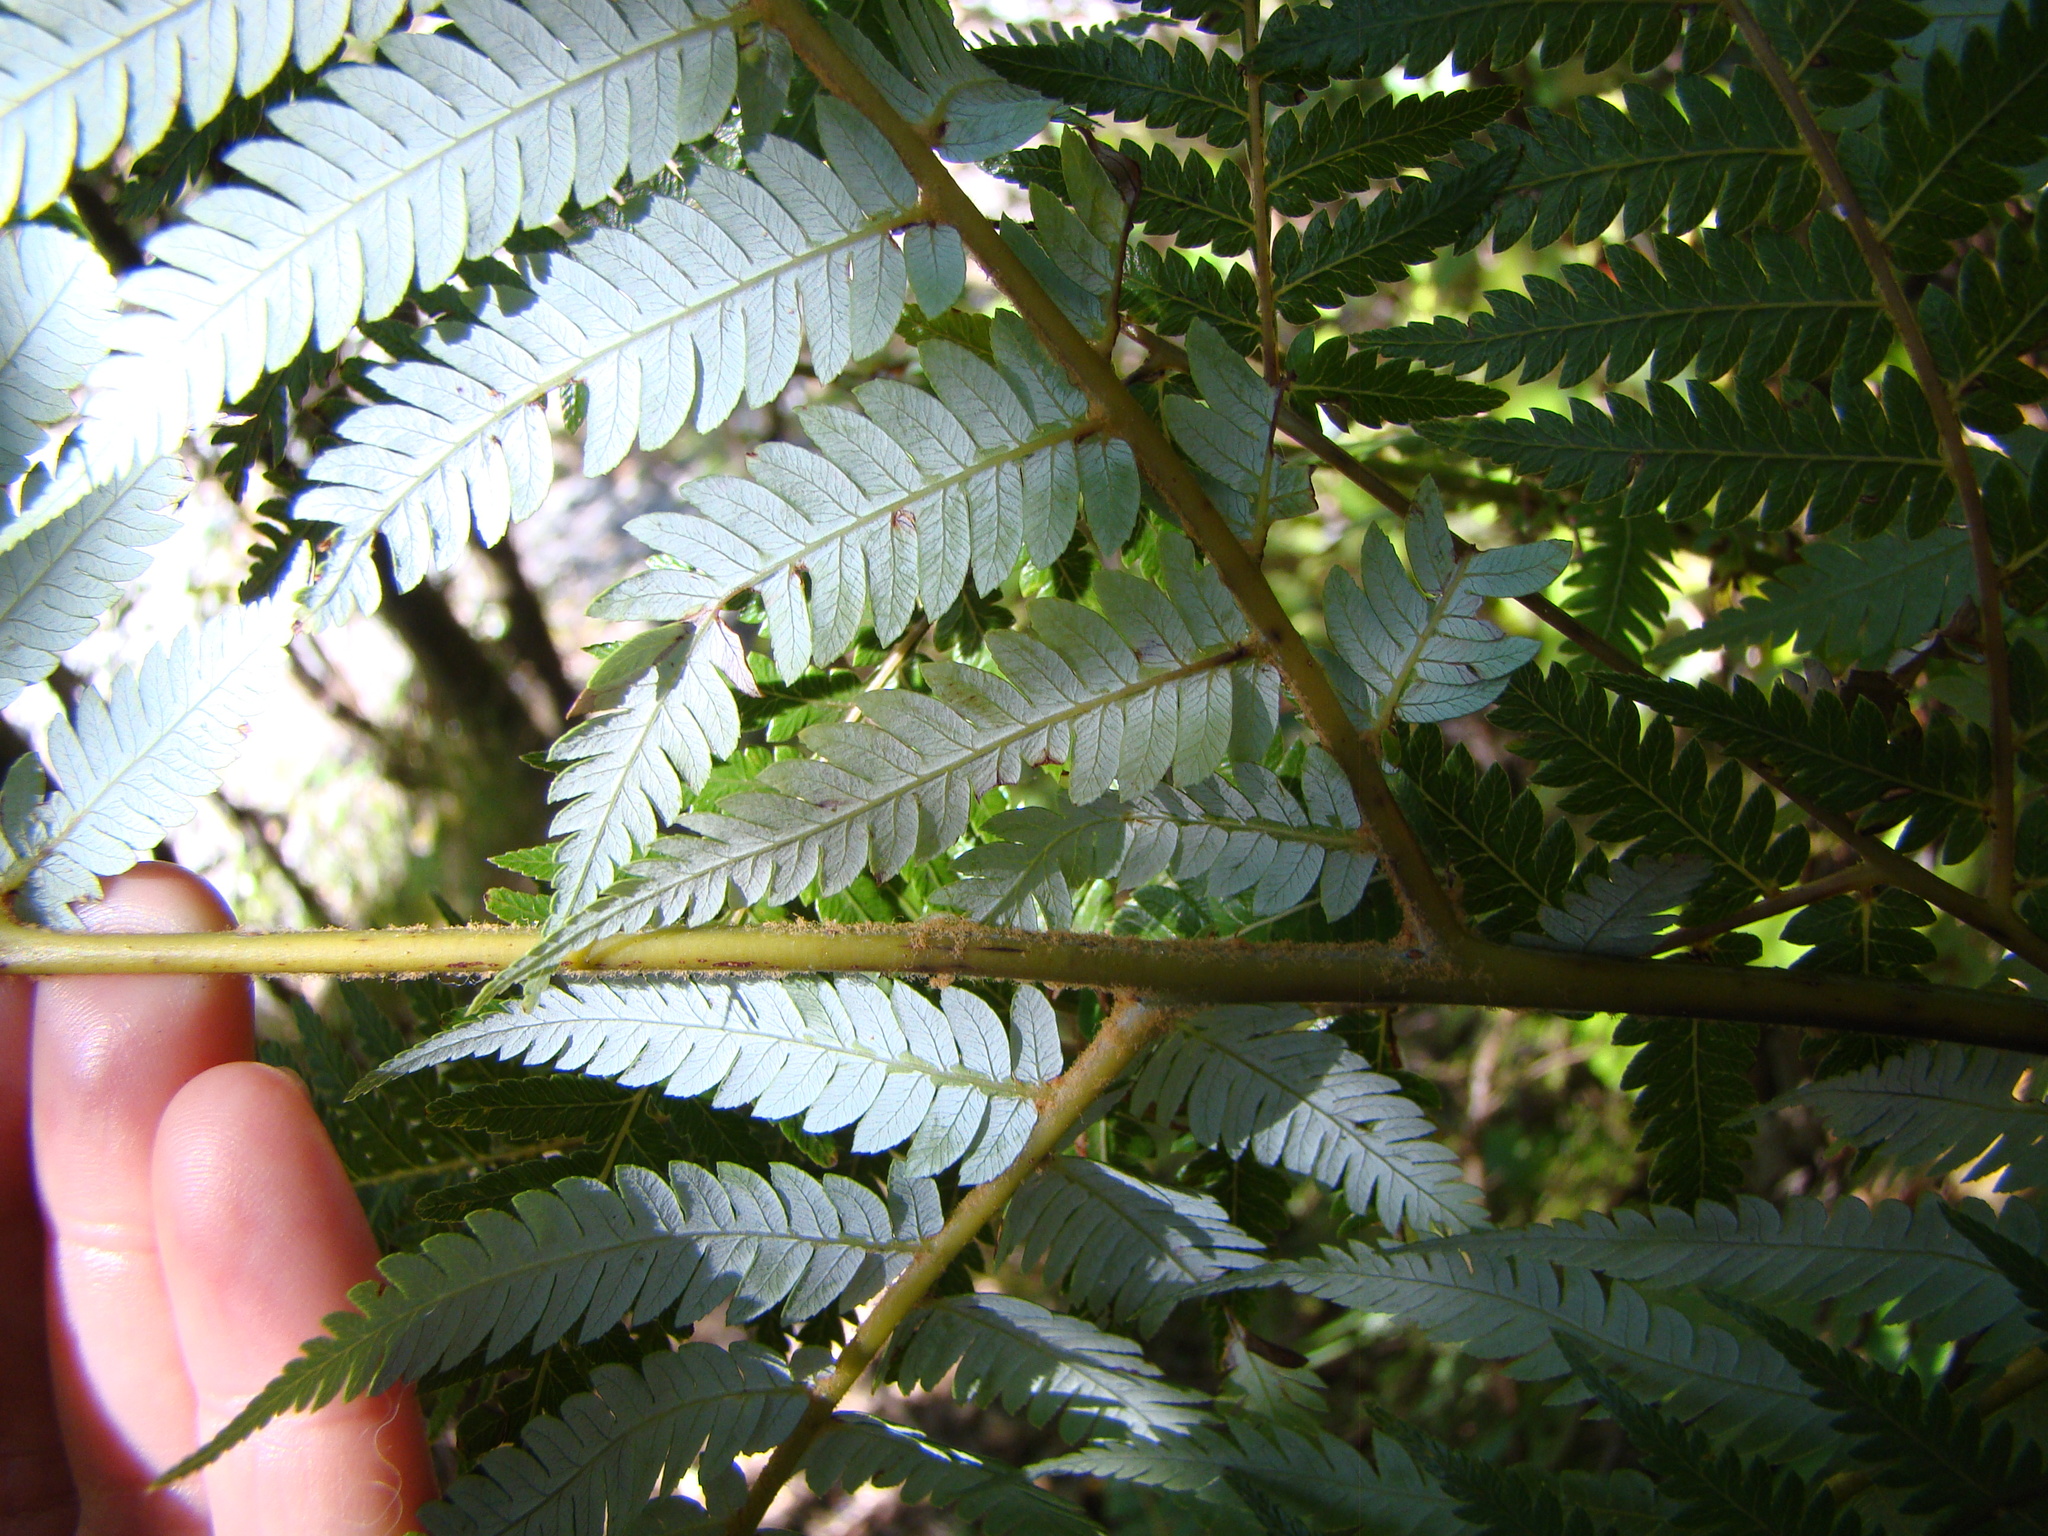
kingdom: Plantae
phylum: Tracheophyta
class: Polypodiopsida
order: Cyatheales
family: Cyatheaceae
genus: Alsophila
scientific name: Alsophila dealbata
